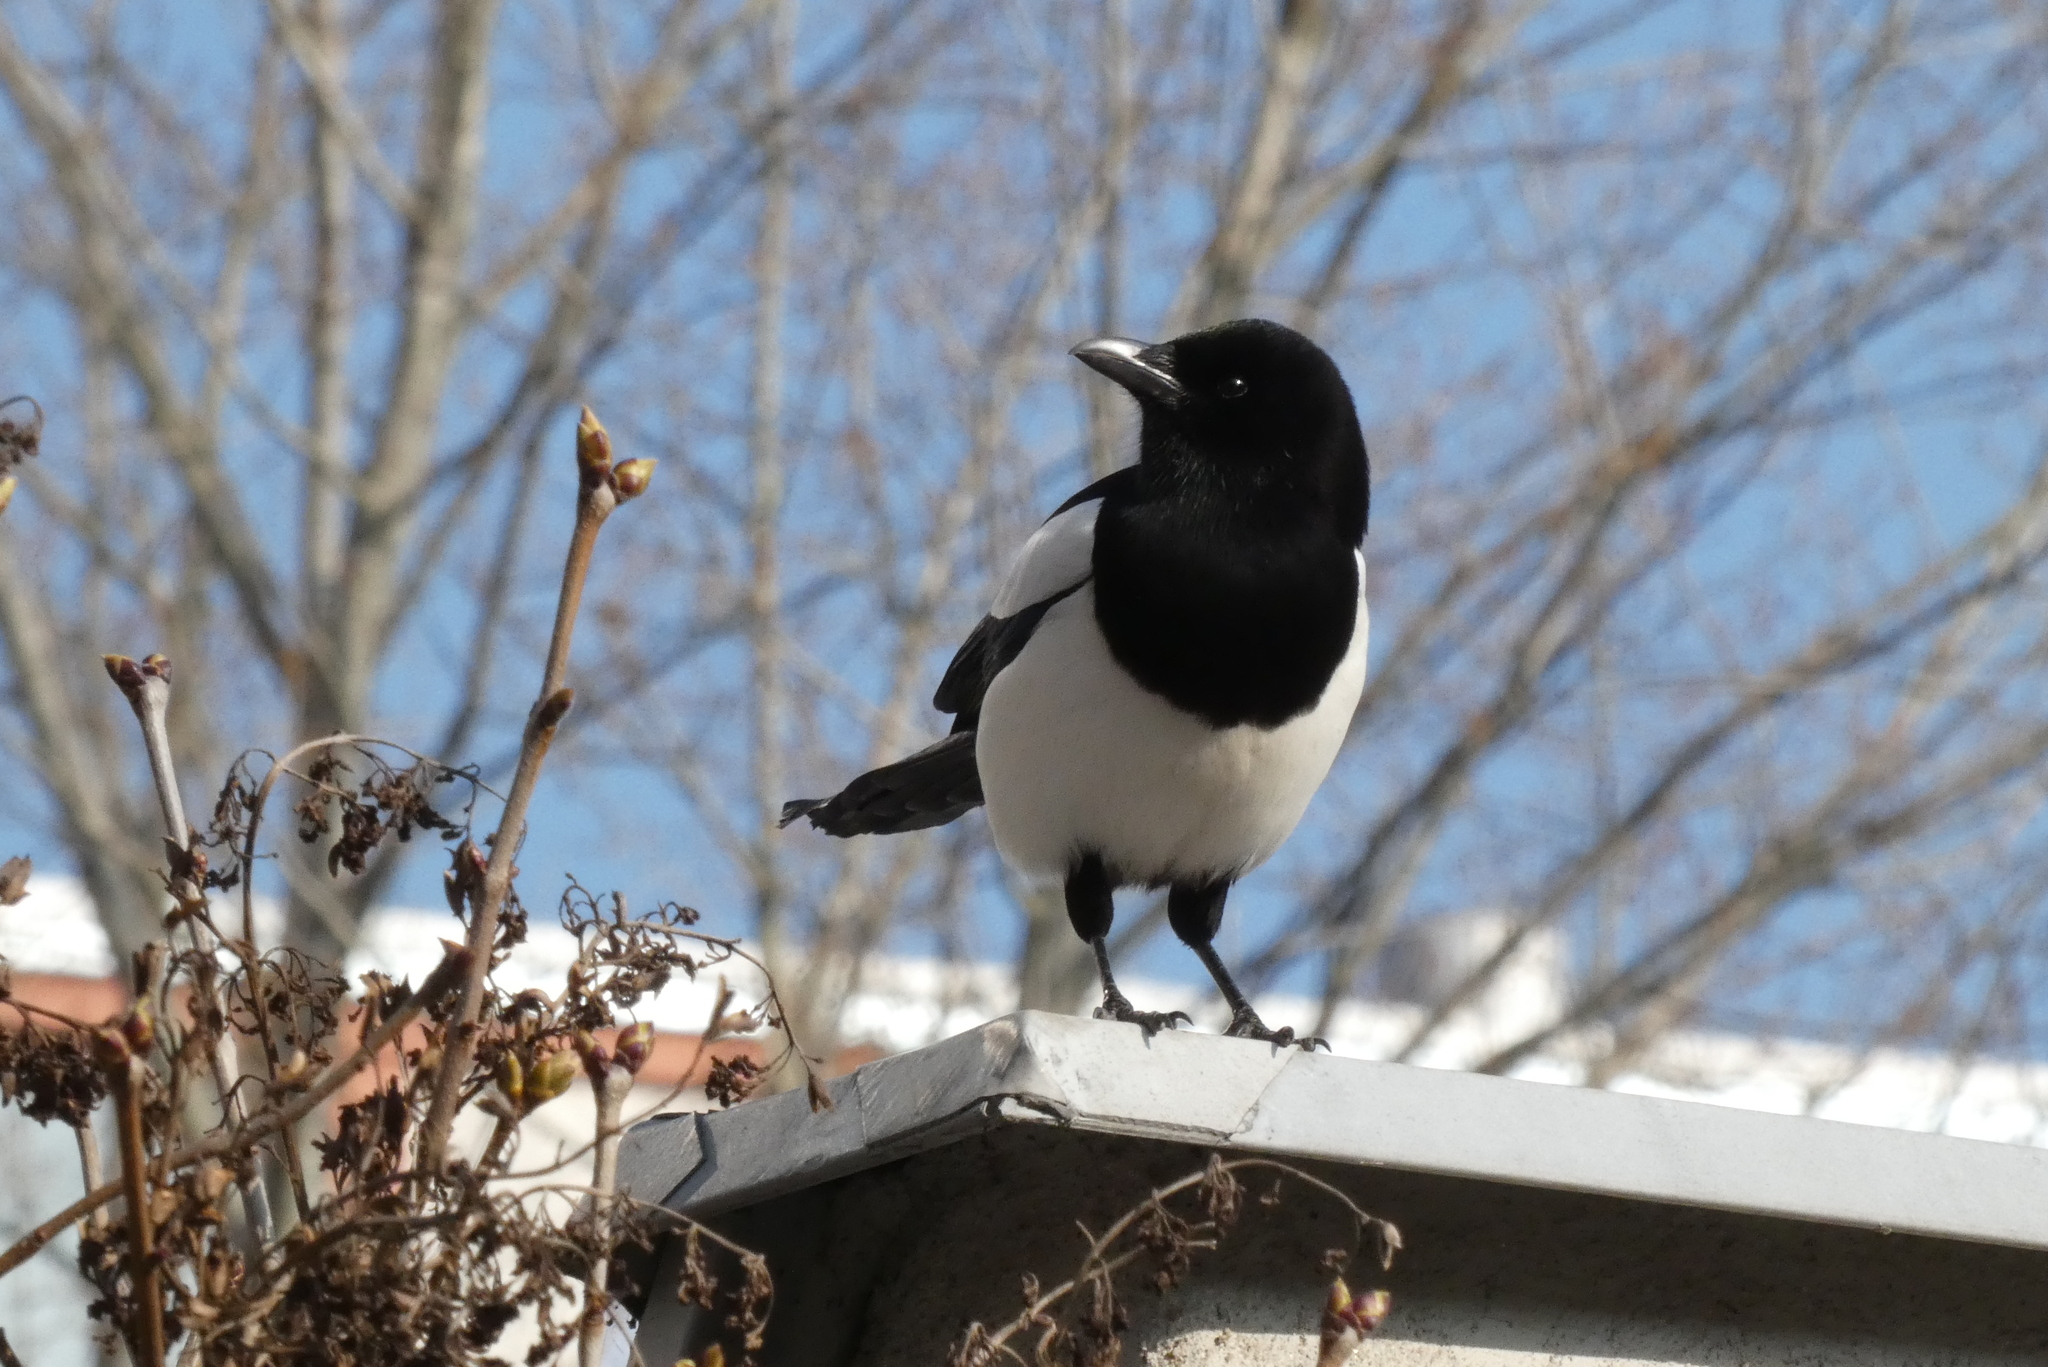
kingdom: Animalia
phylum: Chordata
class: Aves
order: Passeriformes
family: Corvidae
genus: Pica
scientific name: Pica pica
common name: Eurasian magpie
